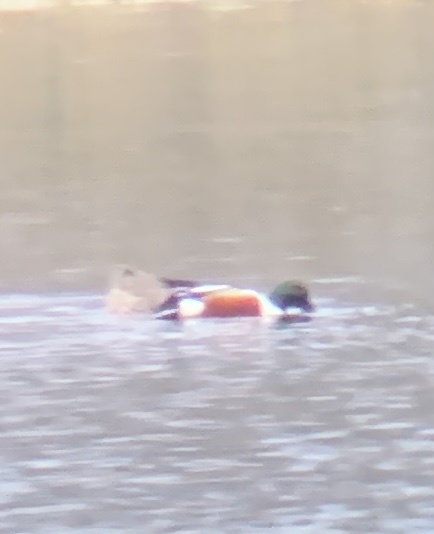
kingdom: Animalia
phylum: Chordata
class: Aves
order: Anseriformes
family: Anatidae
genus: Spatula
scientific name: Spatula clypeata
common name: Northern shoveler
